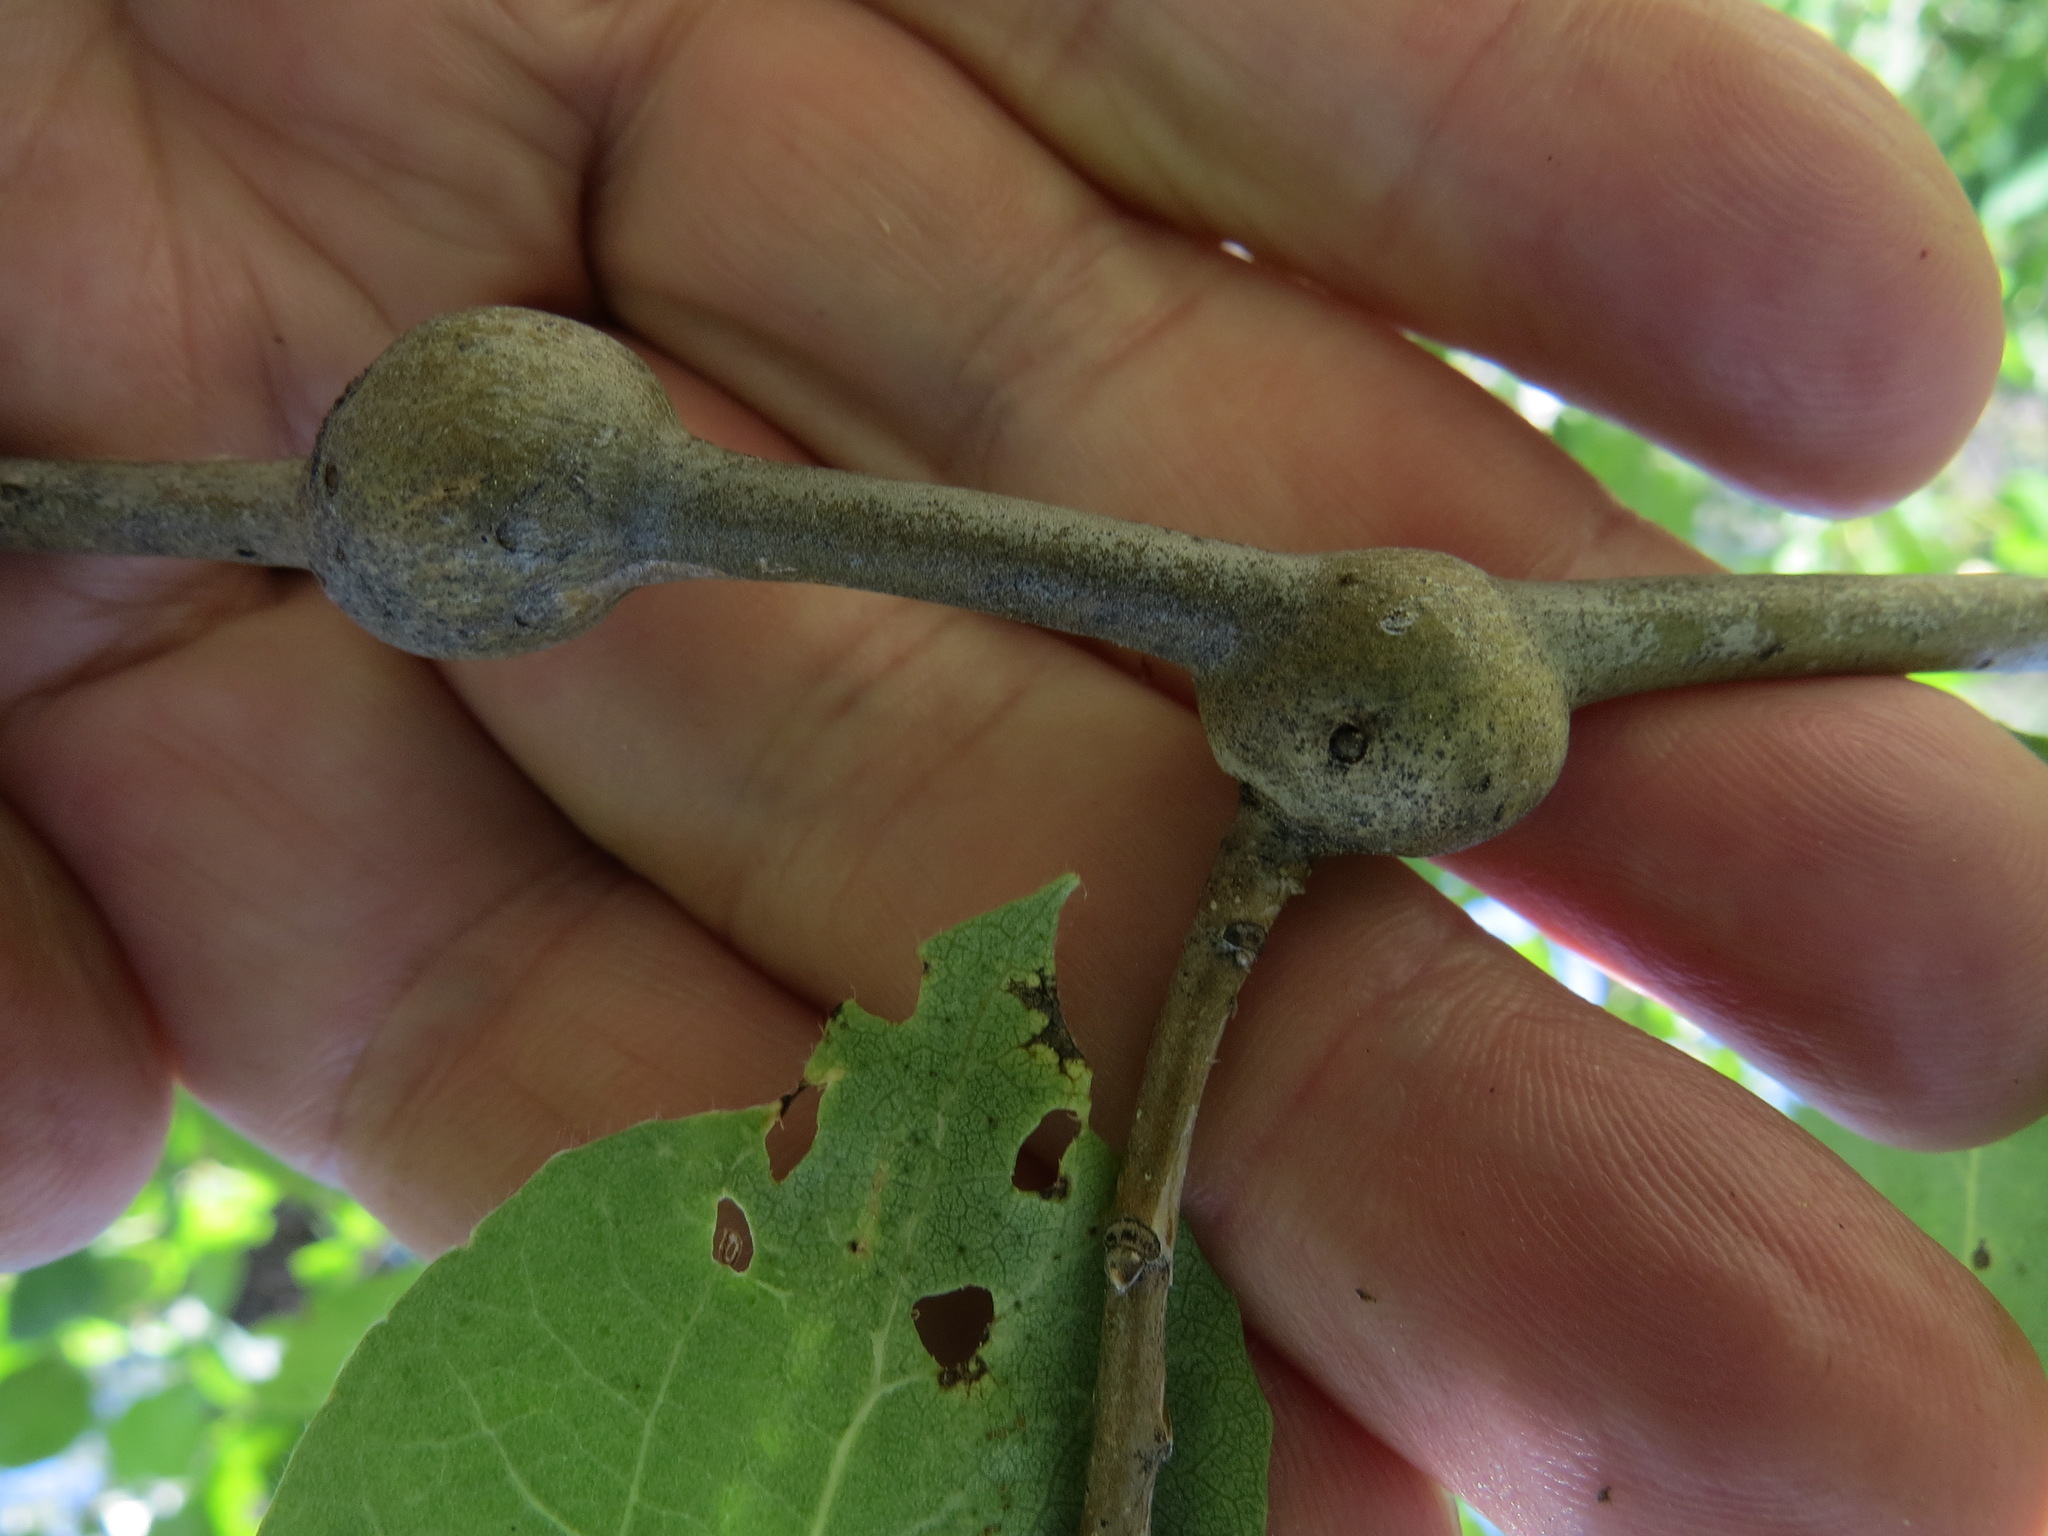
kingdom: Animalia
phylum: Arthropoda
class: Insecta
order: Diptera
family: Agromyzidae
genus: Euhexomyza
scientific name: Euhexomyza schineri
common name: Poplar twiggall fly
